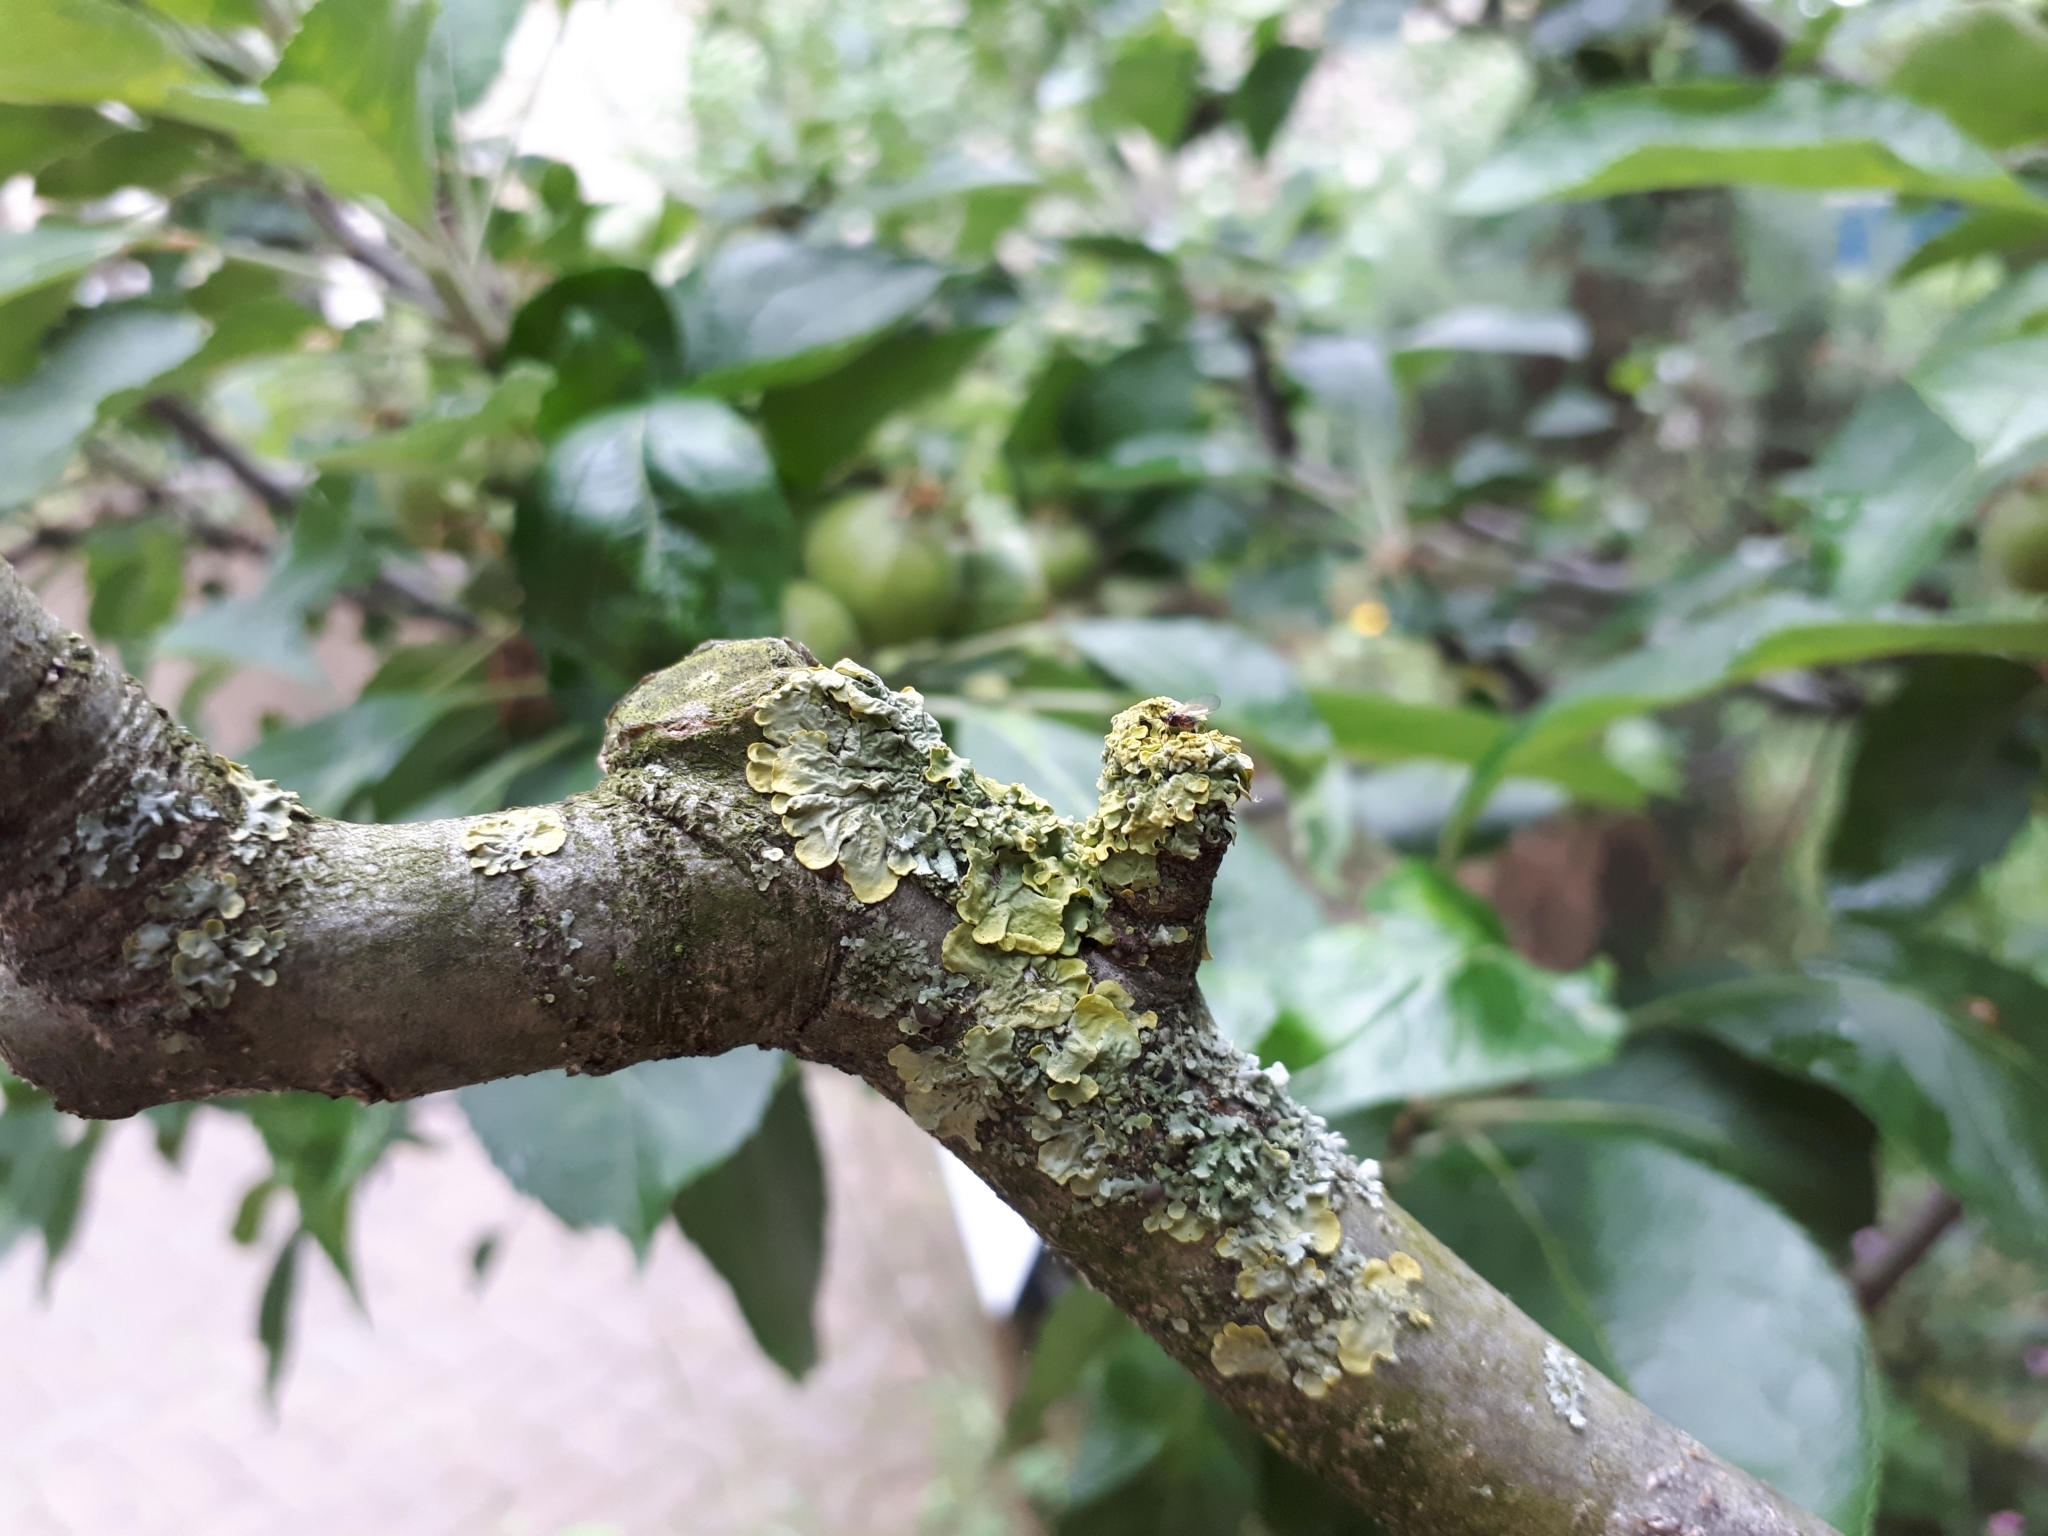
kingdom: Fungi
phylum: Ascomycota
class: Lecanoromycetes
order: Teloschistales
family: Teloschistaceae
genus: Xanthoria
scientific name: Xanthoria parietina
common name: Common orange lichen
